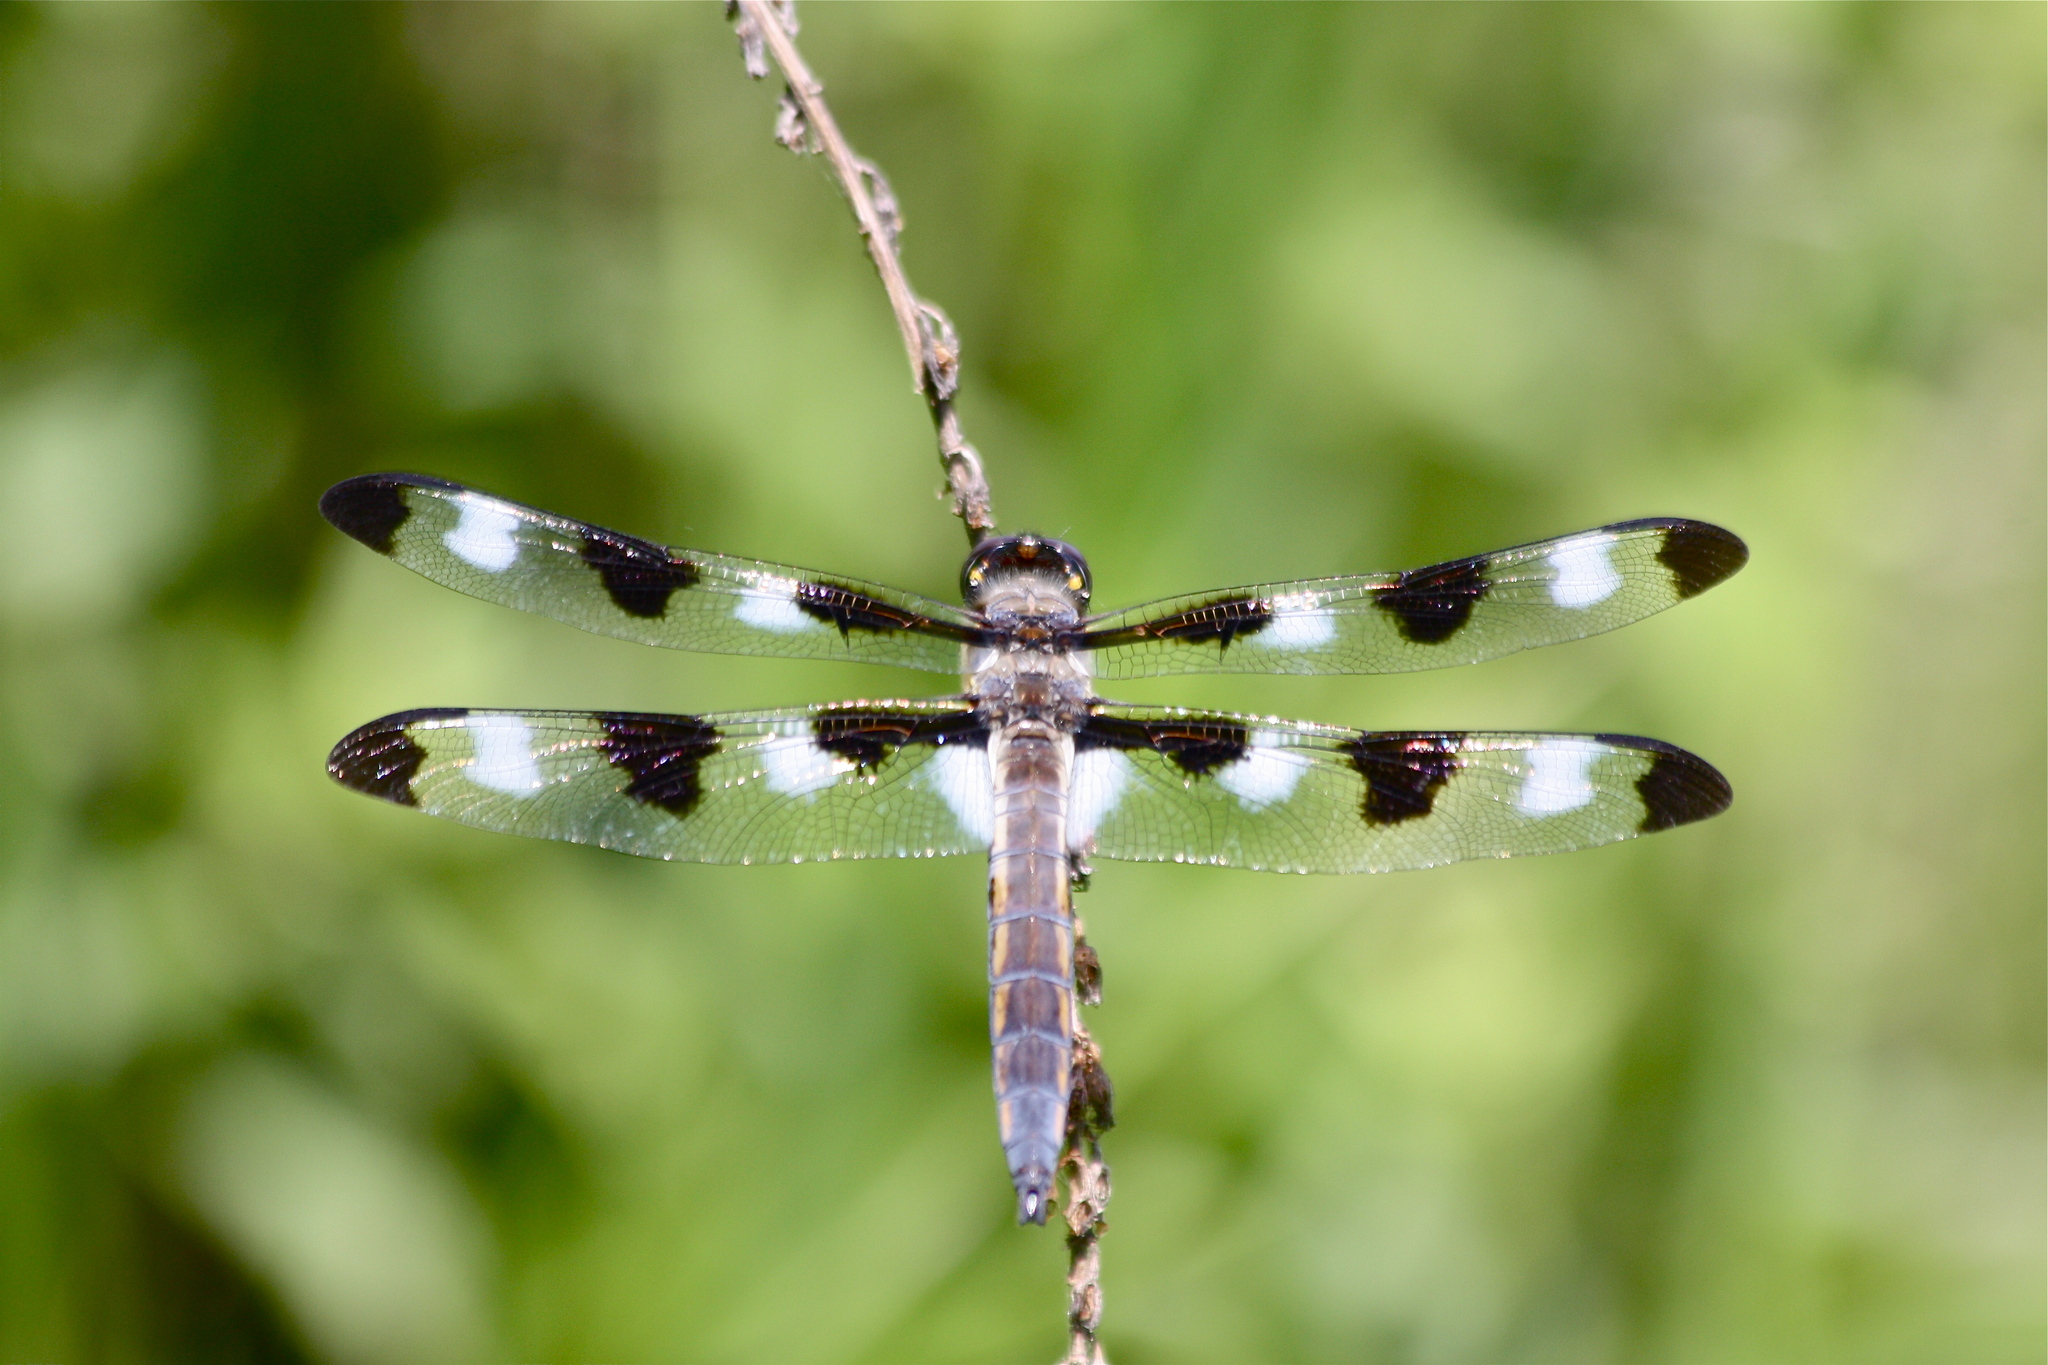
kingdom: Animalia
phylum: Arthropoda
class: Insecta
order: Odonata
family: Libellulidae
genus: Libellula
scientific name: Libellula pulchella
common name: Twelve-spotted skimmer
